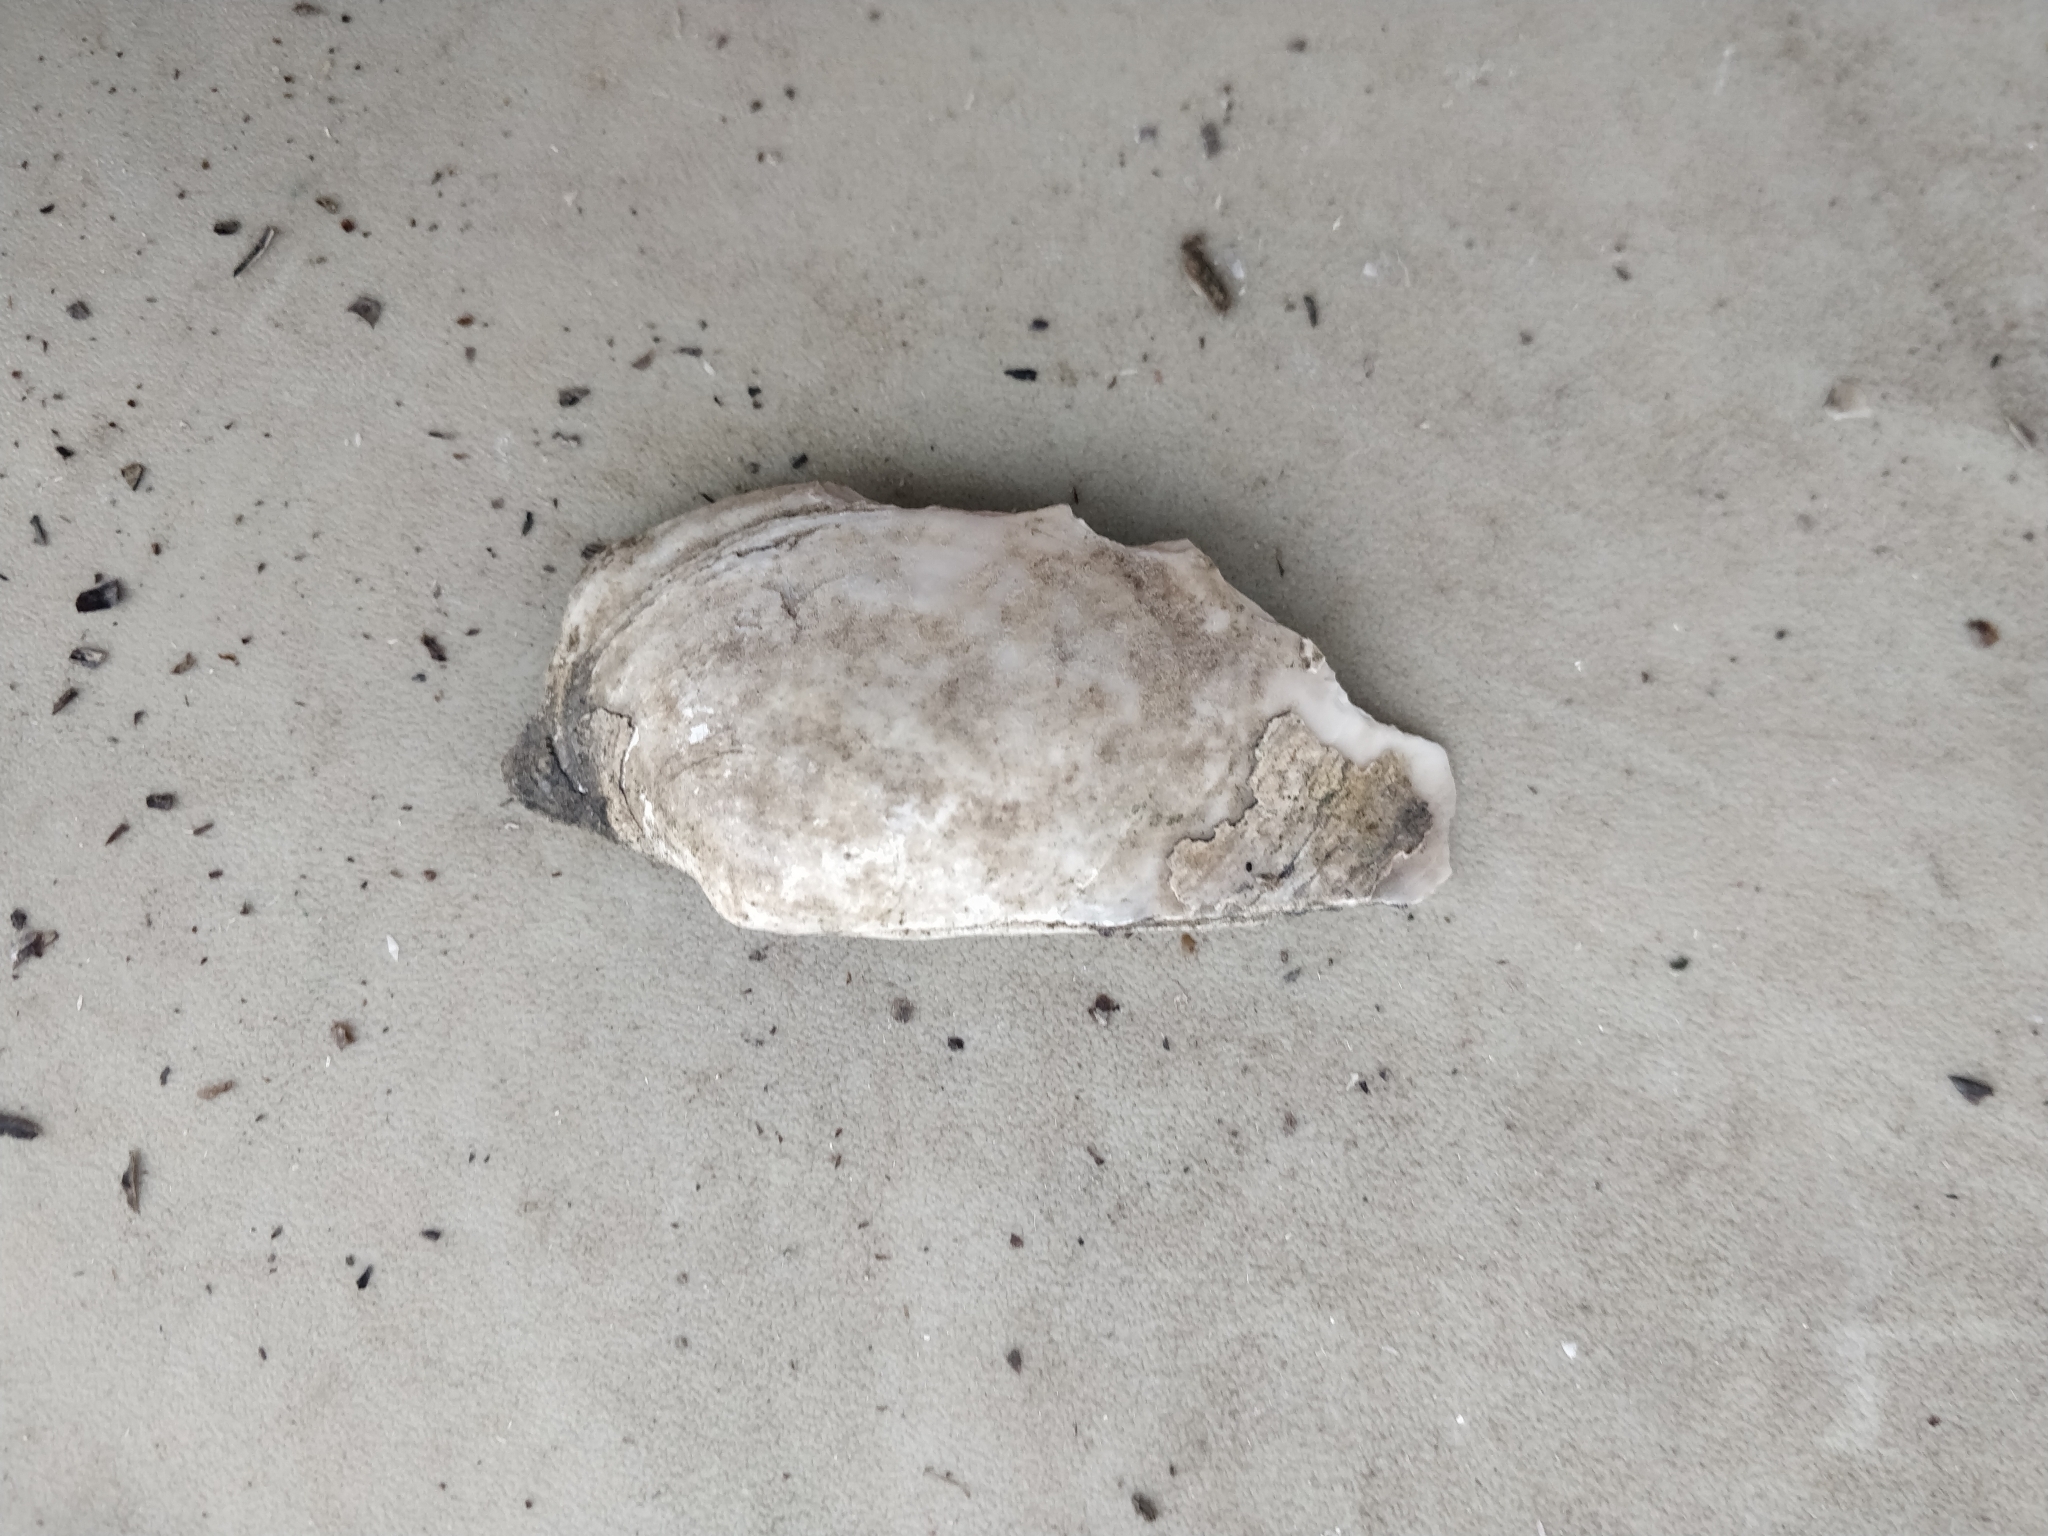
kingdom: Animalia
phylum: Mollusca
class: Bivalvia
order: Unionida
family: Unionidae
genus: Lasmigona
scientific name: Lasmigona complanata
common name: White heelsplitter
